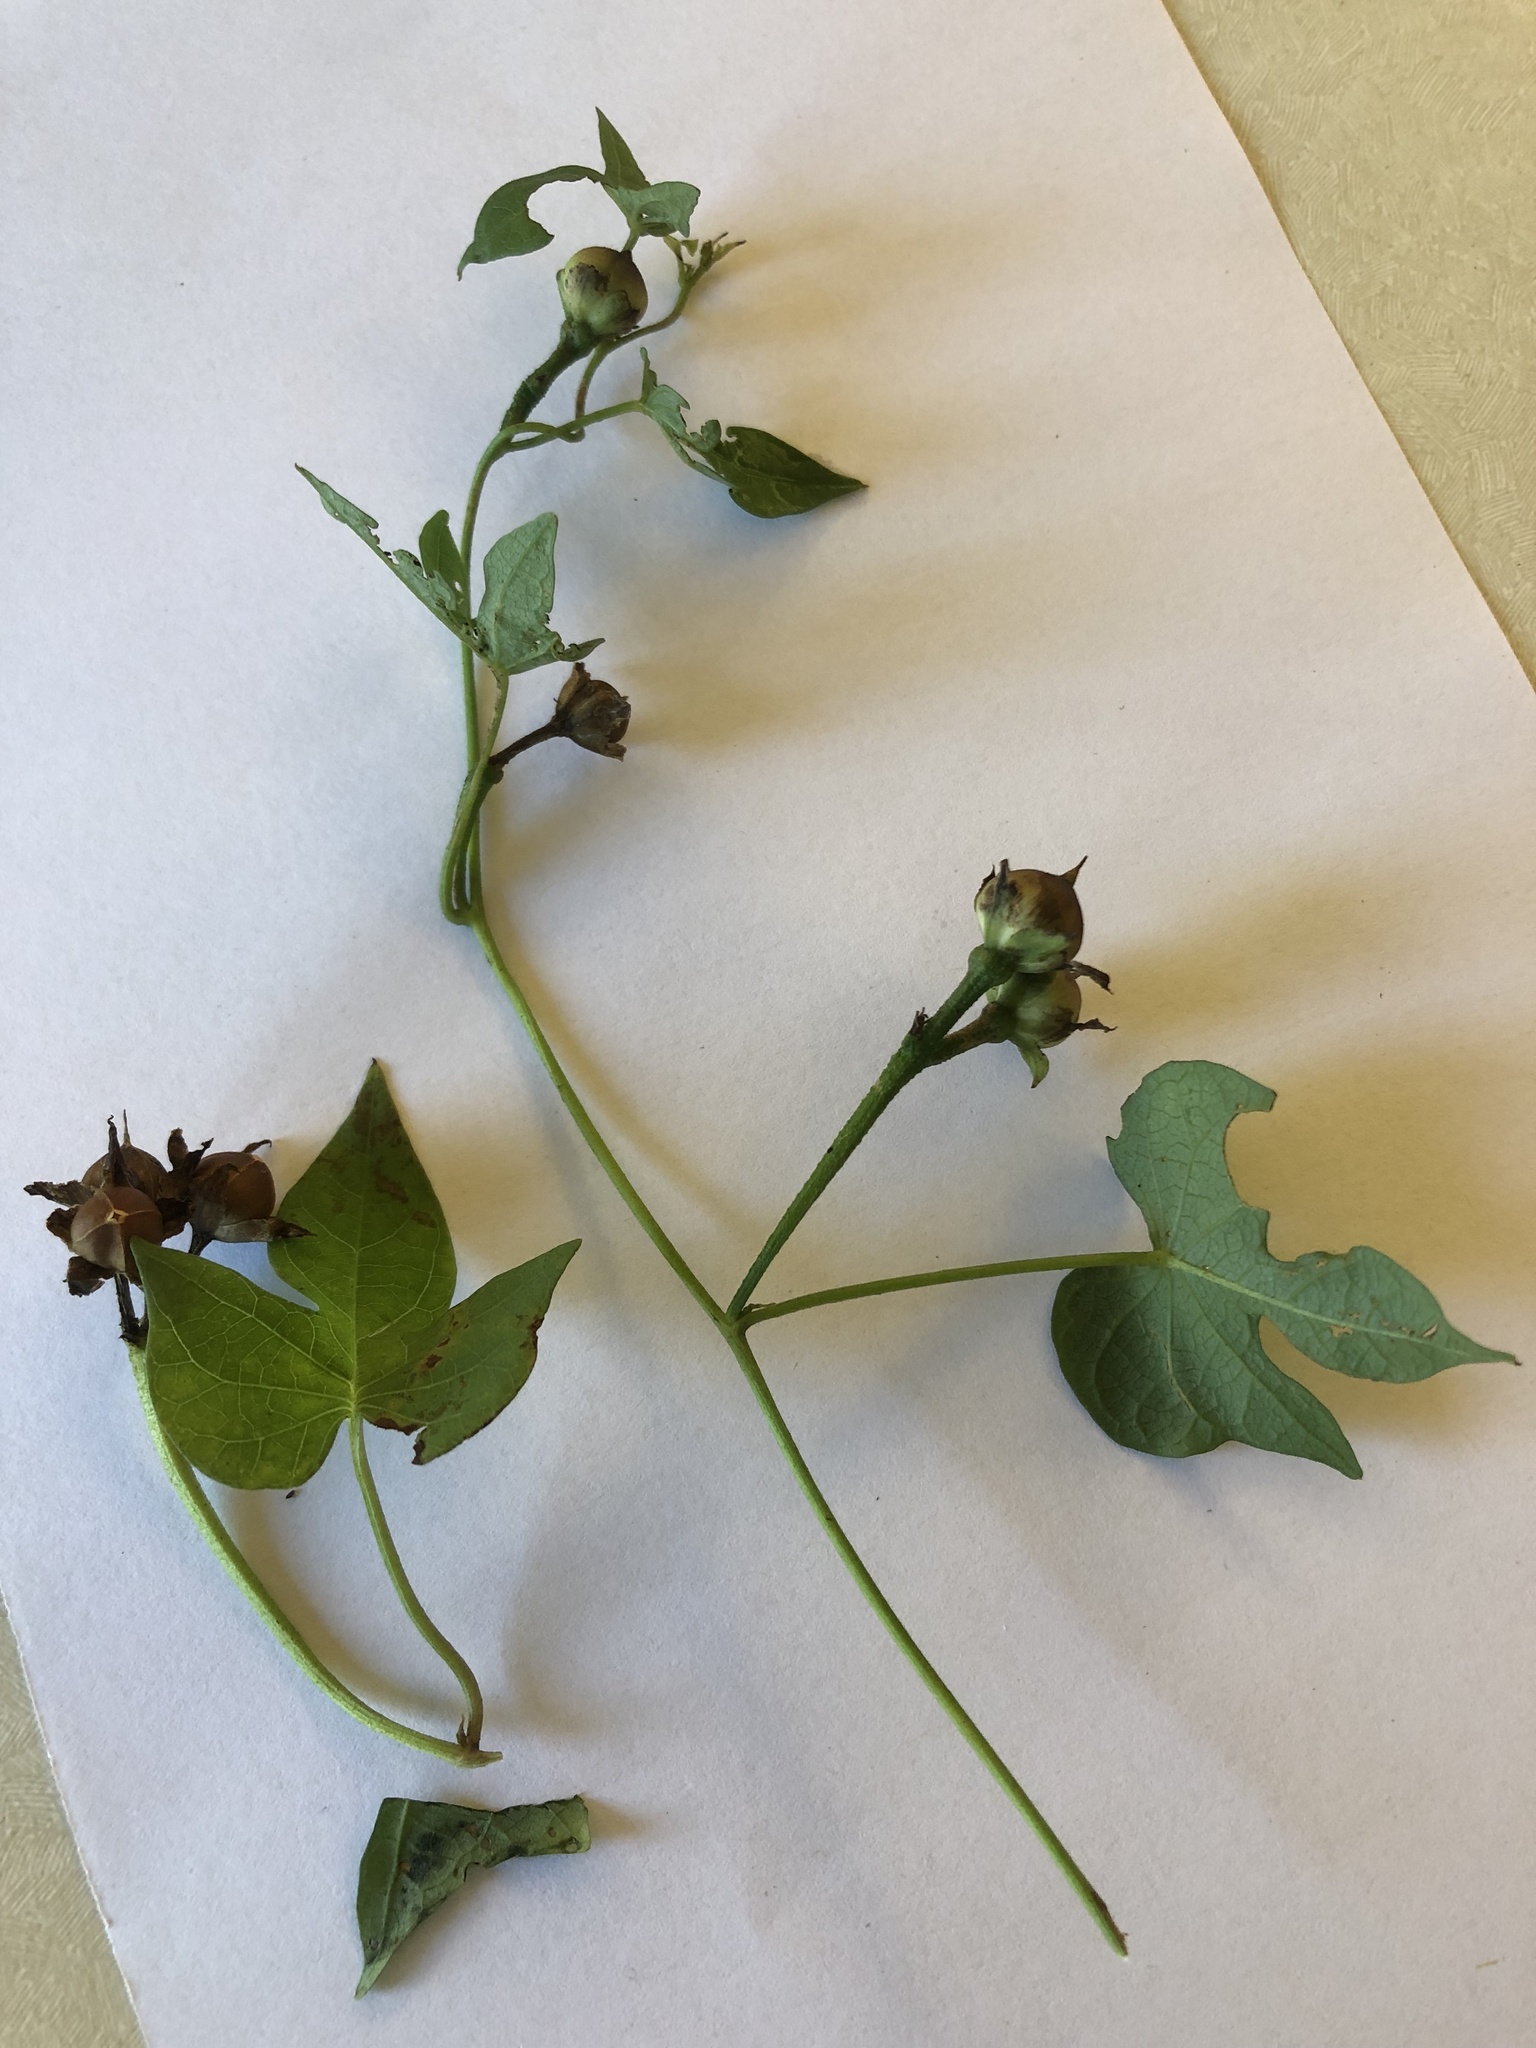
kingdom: Plantae
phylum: Tracheophyta
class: Magnoliopsida
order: Solanales
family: Convolvulaceae
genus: Ipomoea
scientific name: Ipomoea cordatotriloba
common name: Cotton morning glory
